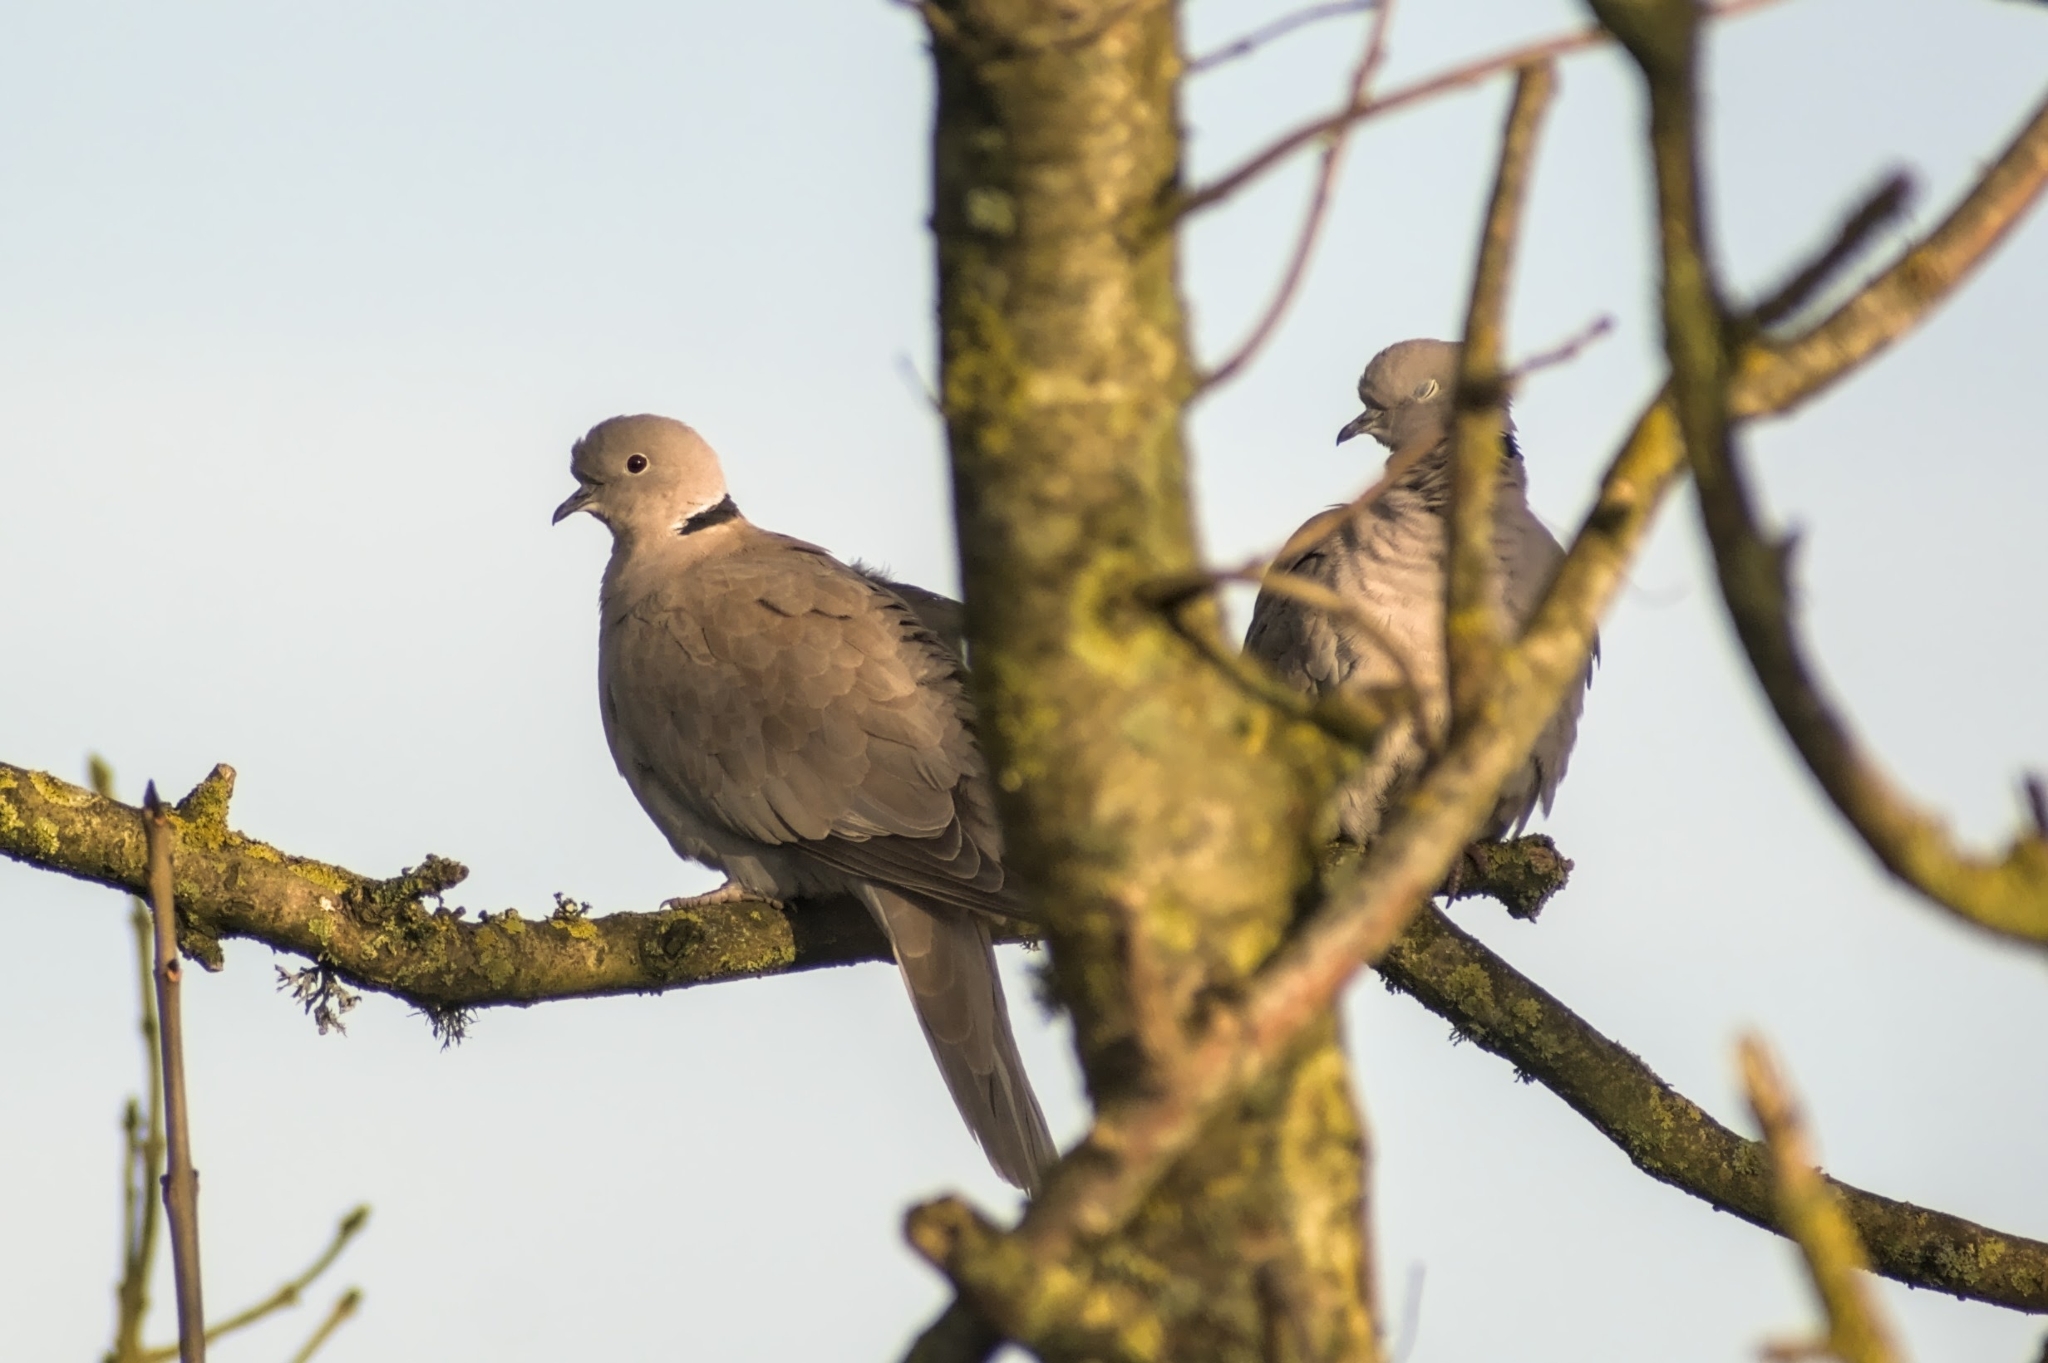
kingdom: Animalia
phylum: Chordata
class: Aves
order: Columbiformes
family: Columbidae
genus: Streptopelia
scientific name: Streptopelia decaocto
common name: Eurasian collared dove
